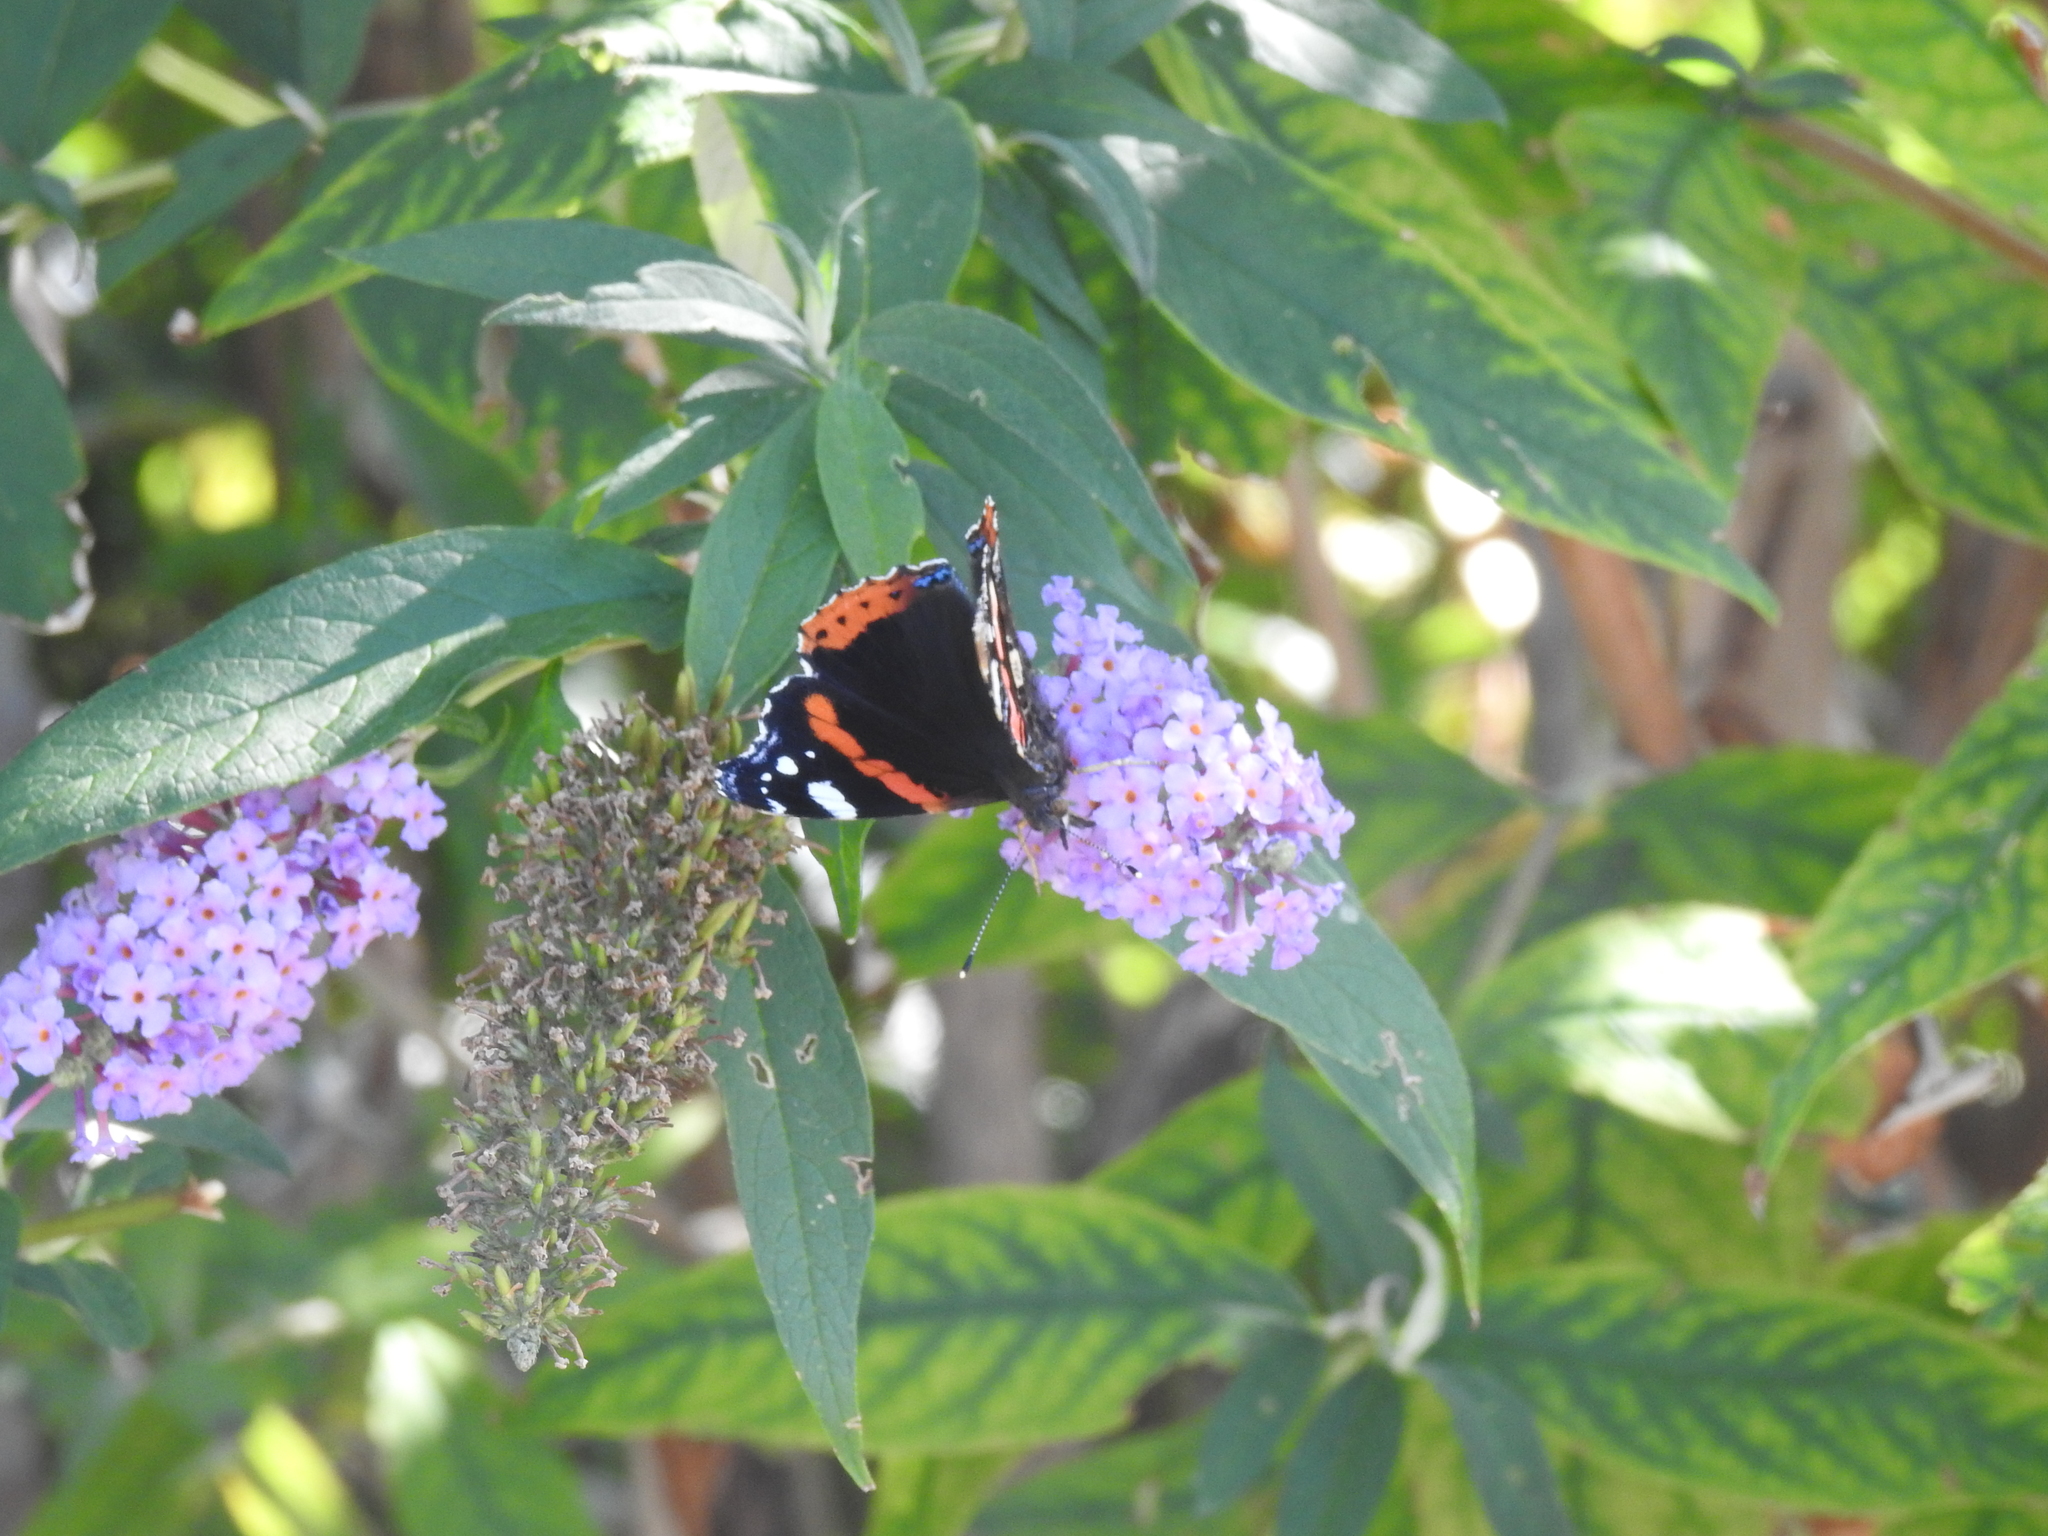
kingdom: Animalia
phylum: Arthropoda
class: Insecta
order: Lepidoptera
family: Nymphalidae
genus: Vanessa
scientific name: Vanessa atalanta
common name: Red admiral
